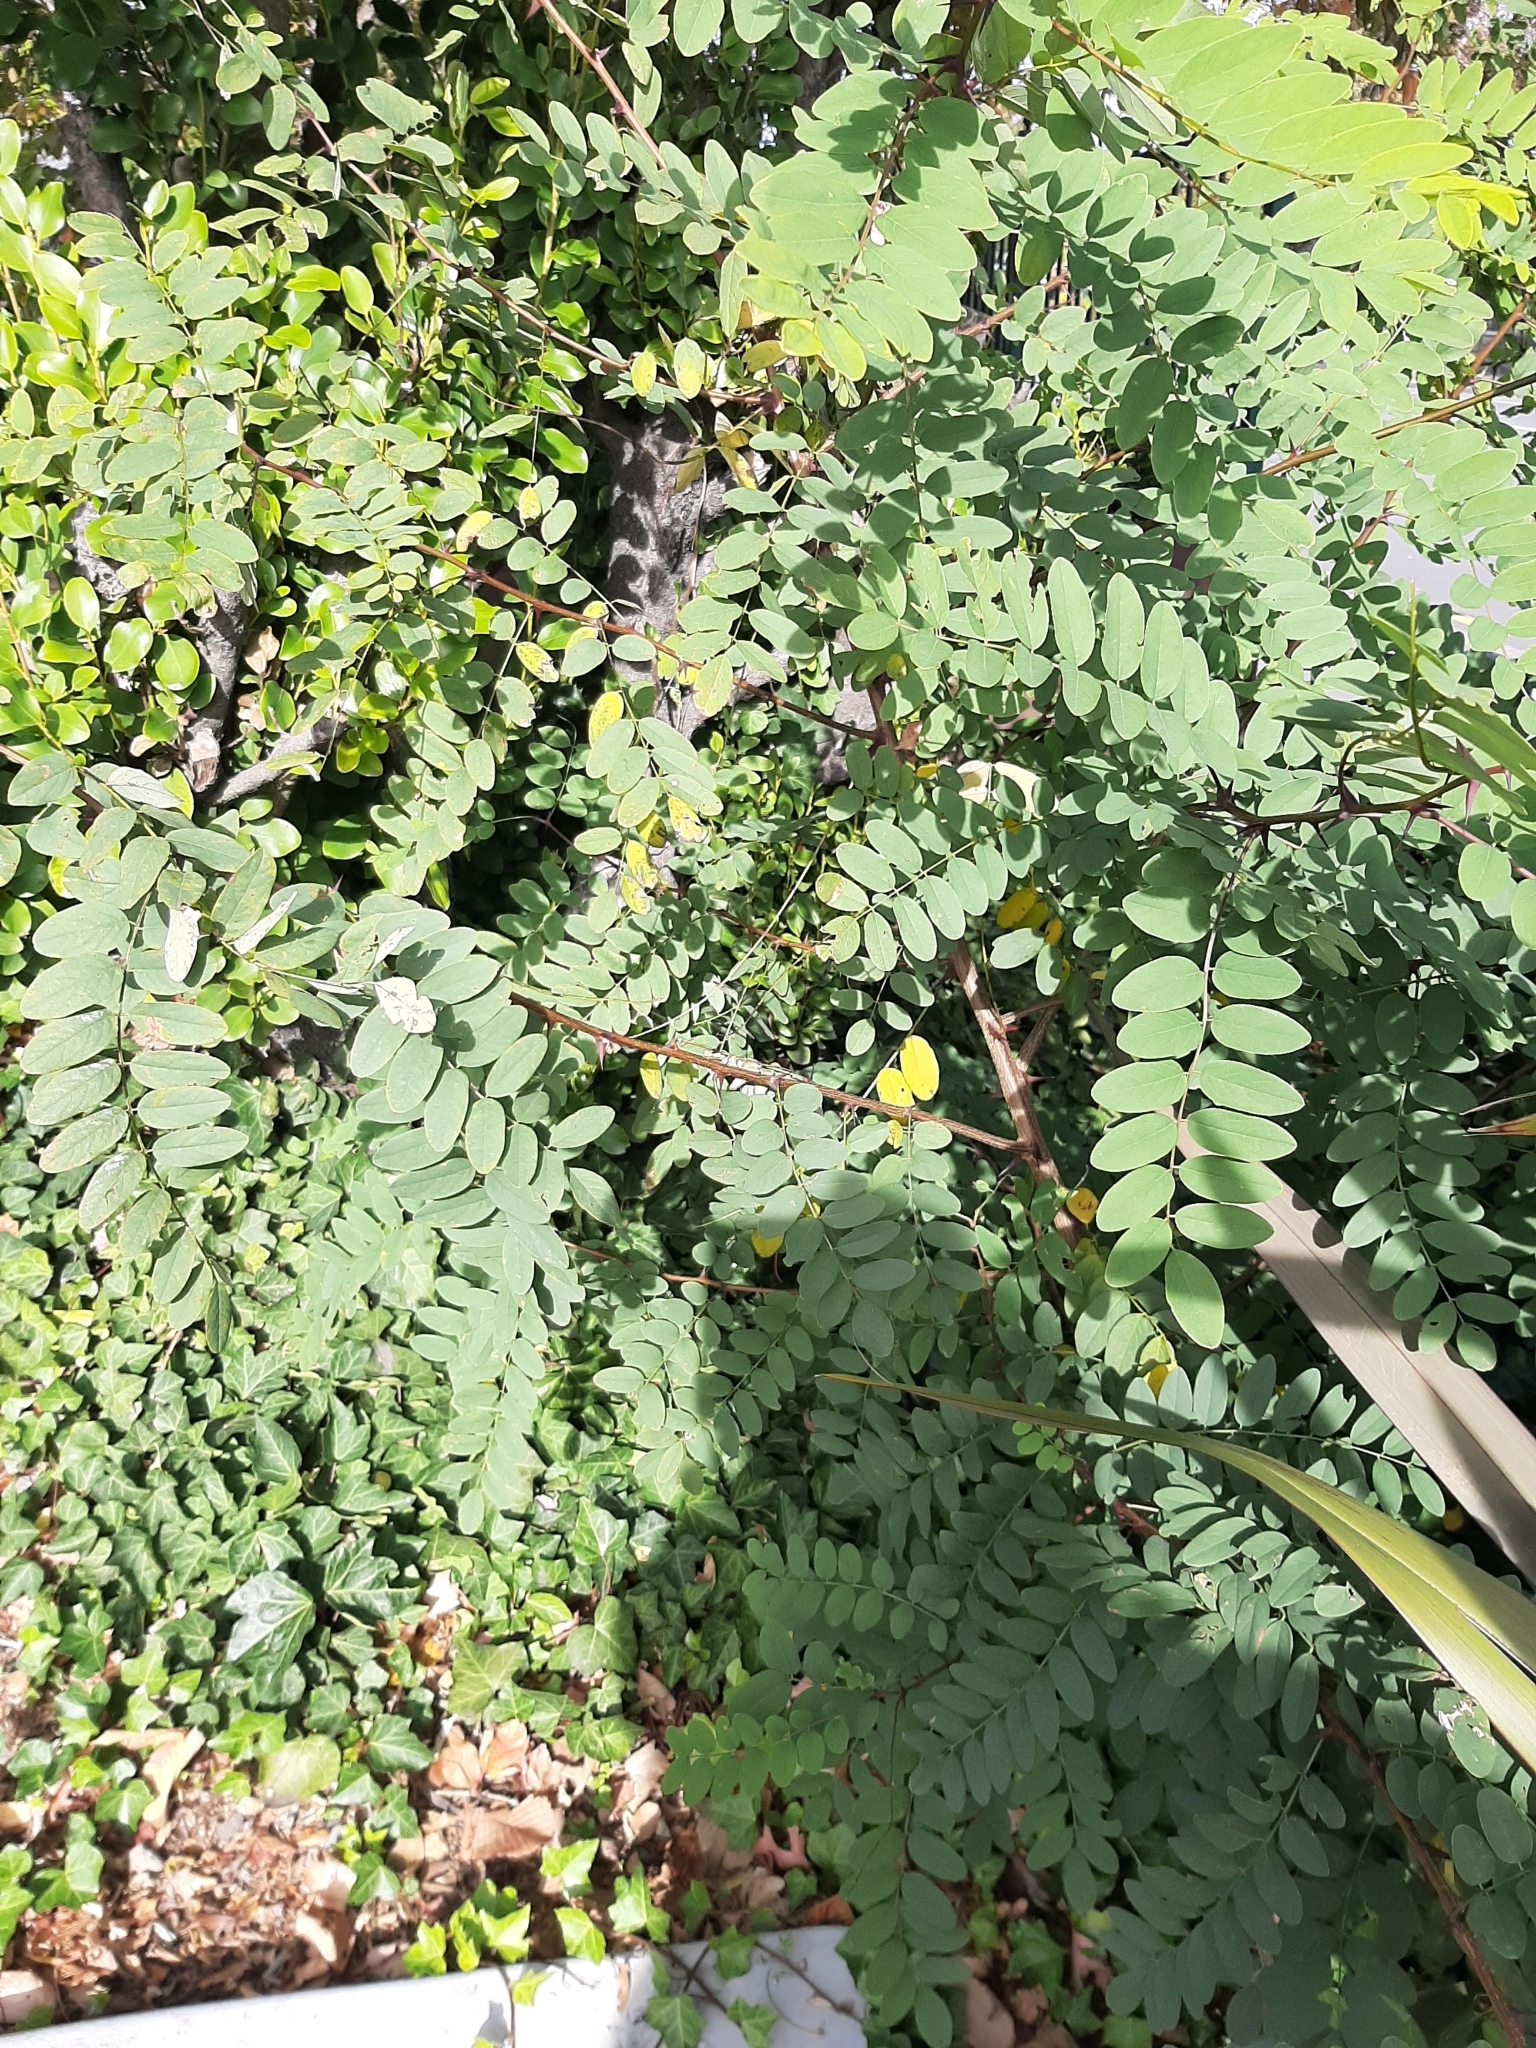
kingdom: Plantae
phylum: Tracheophyta
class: Magnoliopsida
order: Fabales
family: Fabaceae
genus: Robinia
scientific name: Robinia pseudoacacia
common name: Black locust
